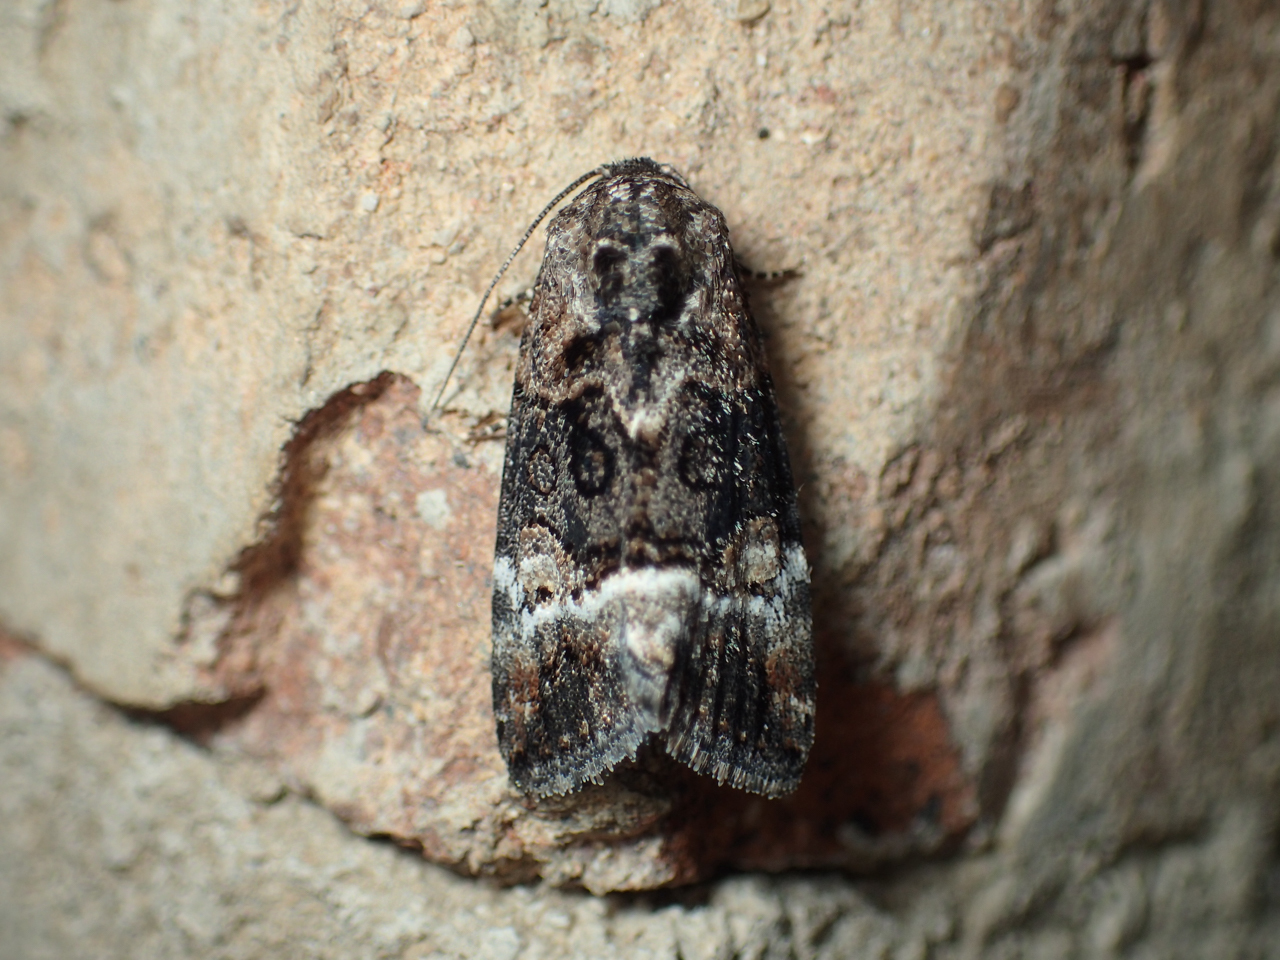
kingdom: Animalia
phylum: Arthropoda
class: Insecta
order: Lepidoptera
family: Noctuidae
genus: Elaphria
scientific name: Elaphria georgei
